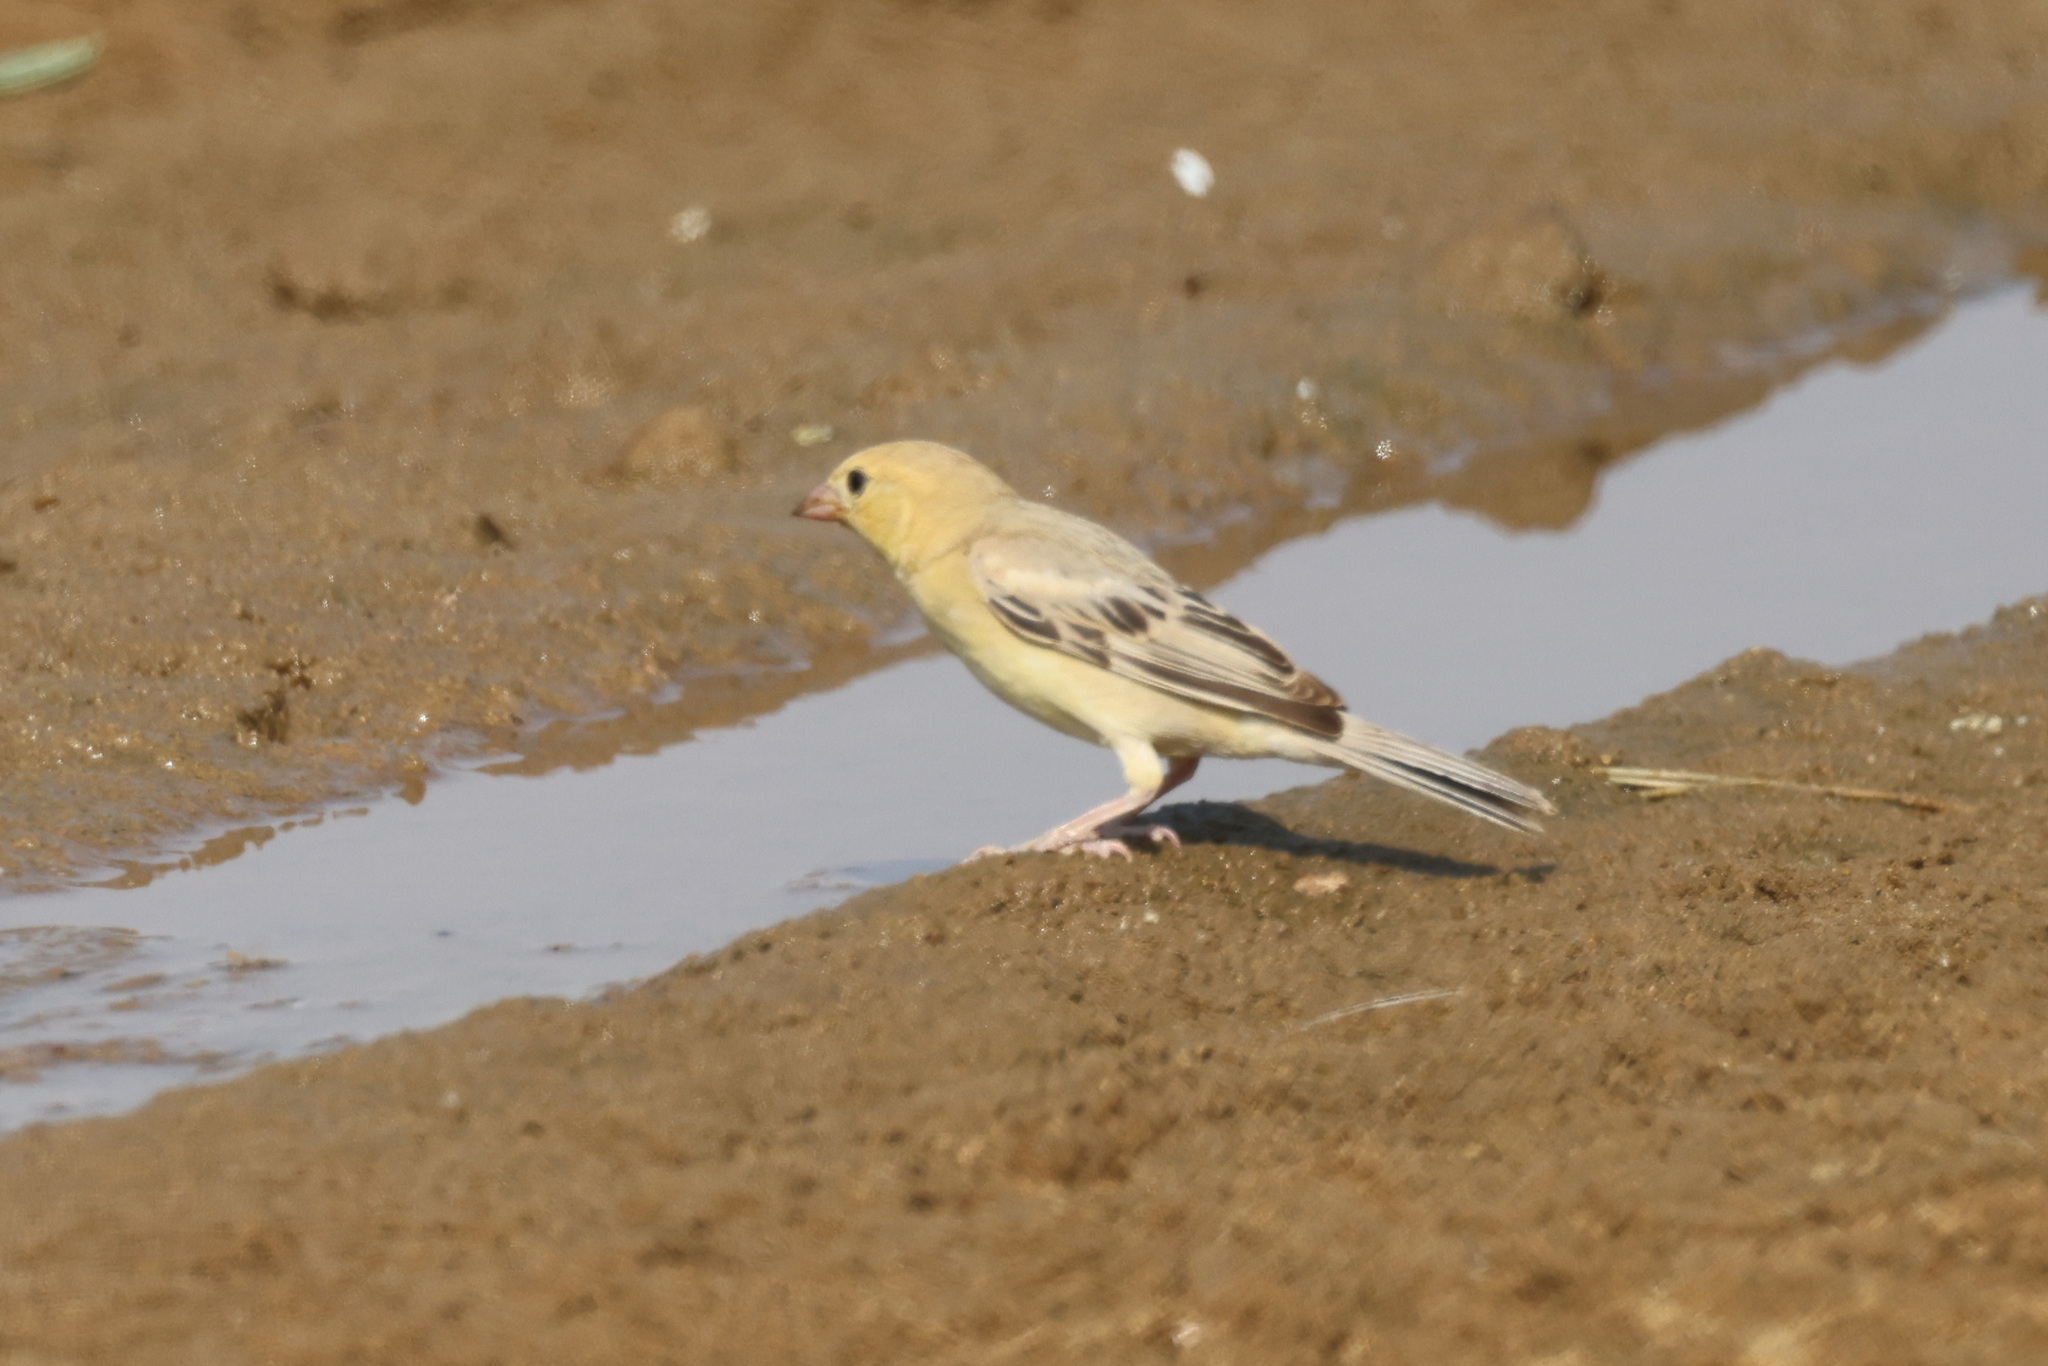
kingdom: Animalia
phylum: Chordata
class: Aves
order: Passeriformes
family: Passeridae
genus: Passer
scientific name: Passer euchlorus
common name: Arabian golden sparrow
